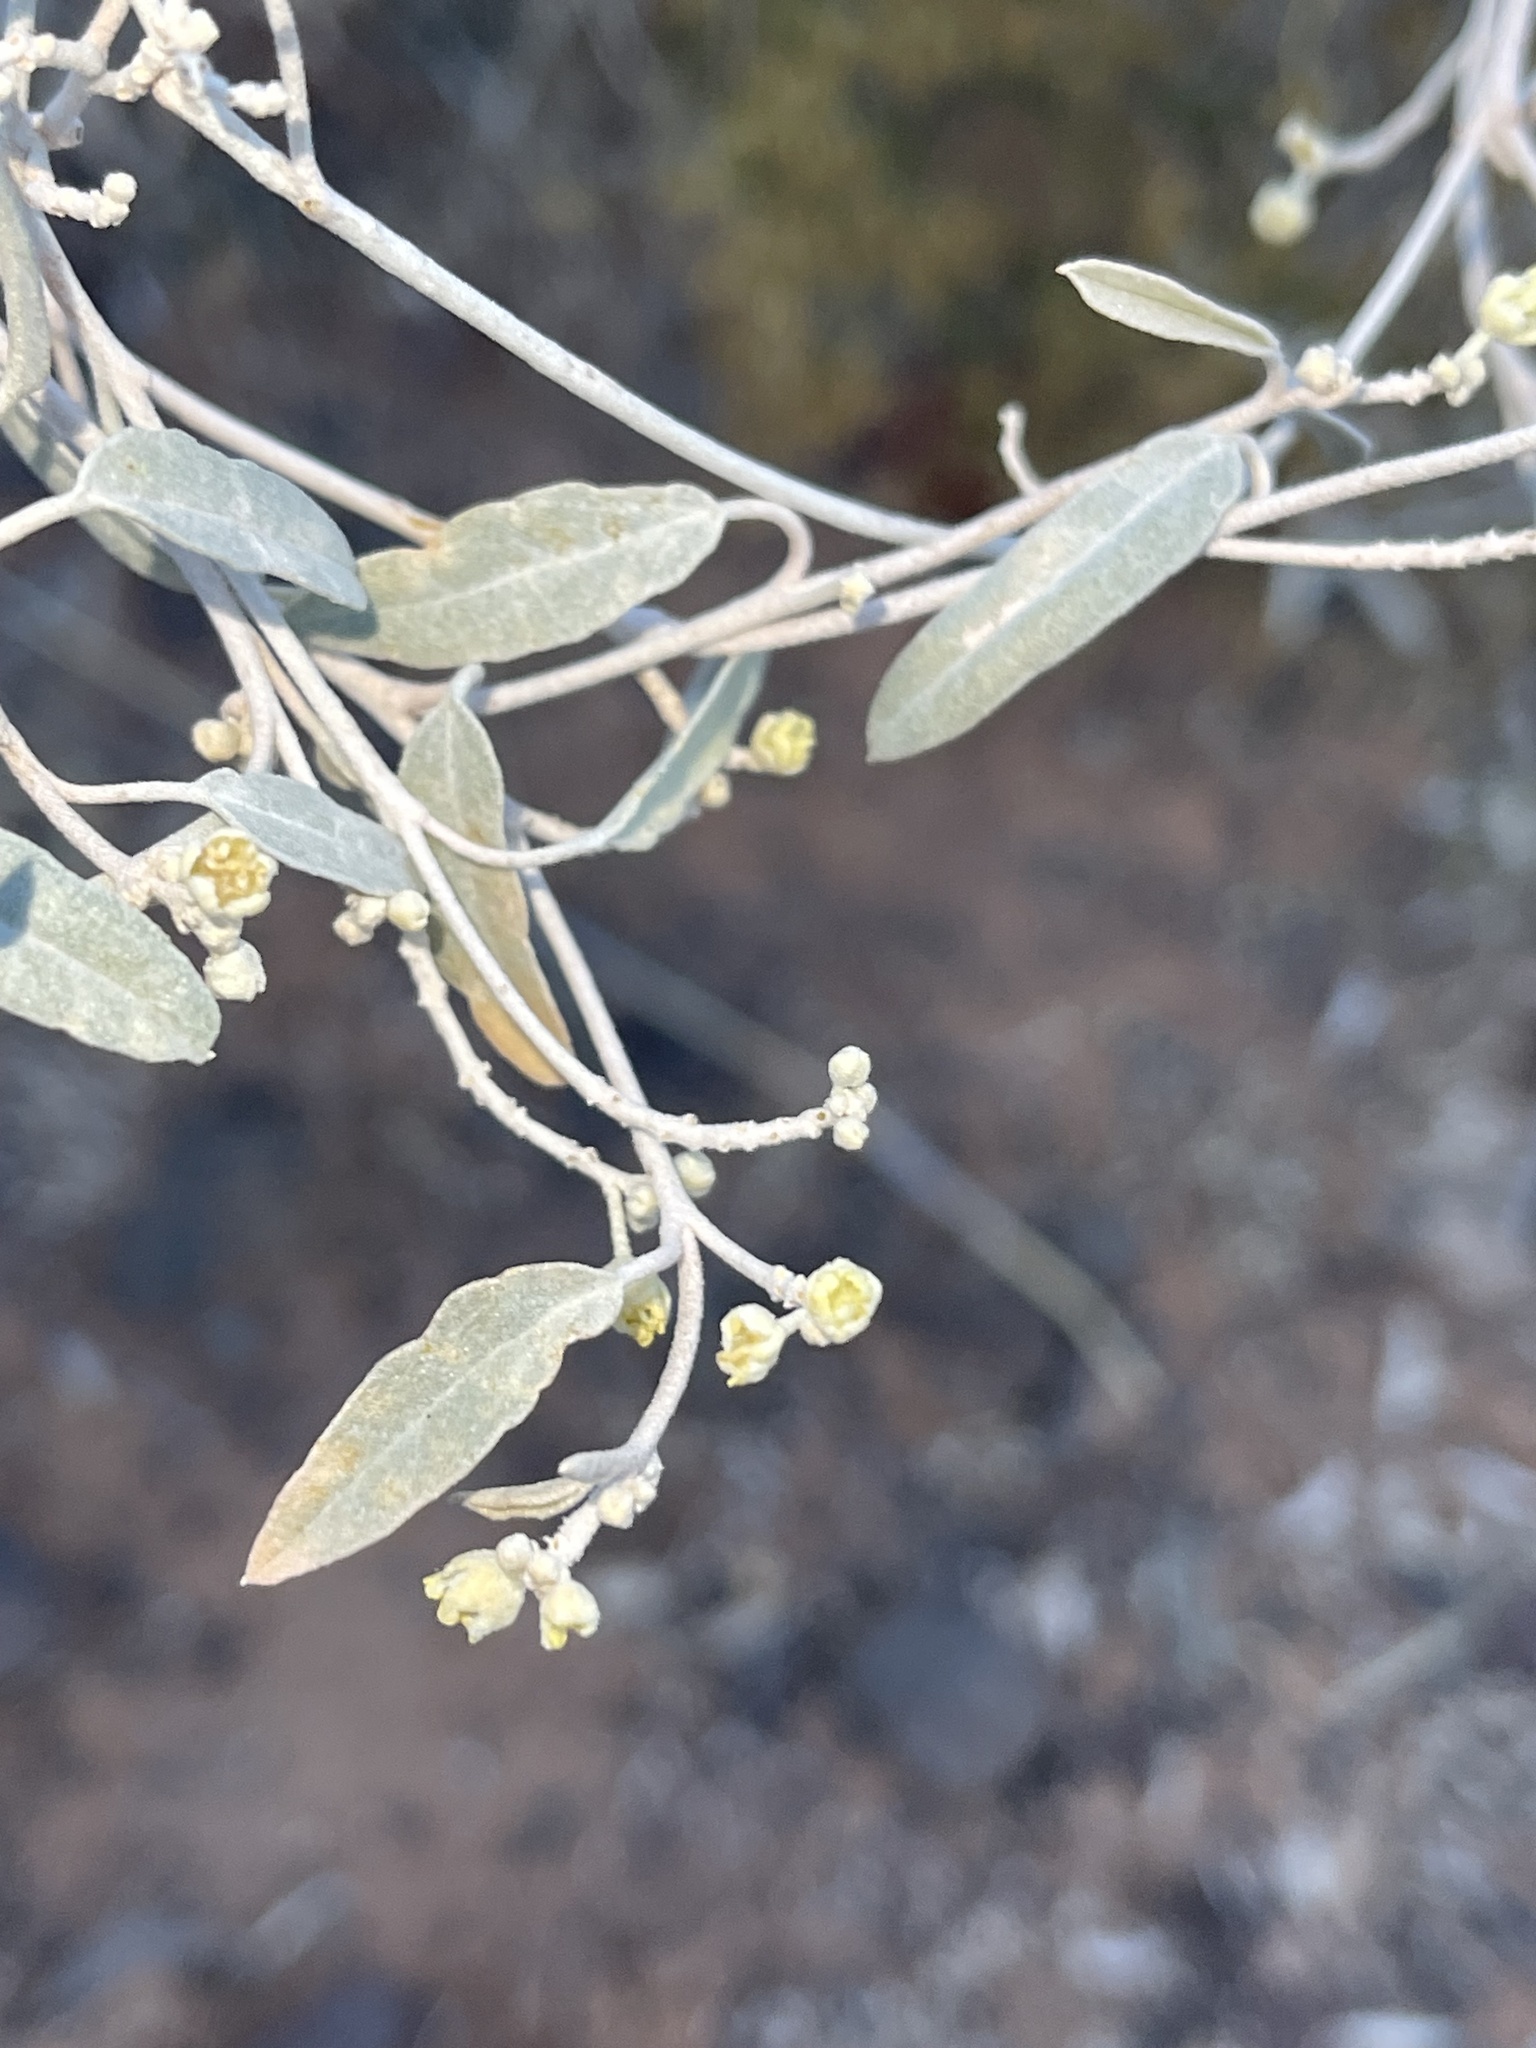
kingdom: Plantae
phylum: Tracheophyta
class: Magnoliopsida
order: Malpighiales
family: Euphorbiaceae
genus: Croton
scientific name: Croton californicus
